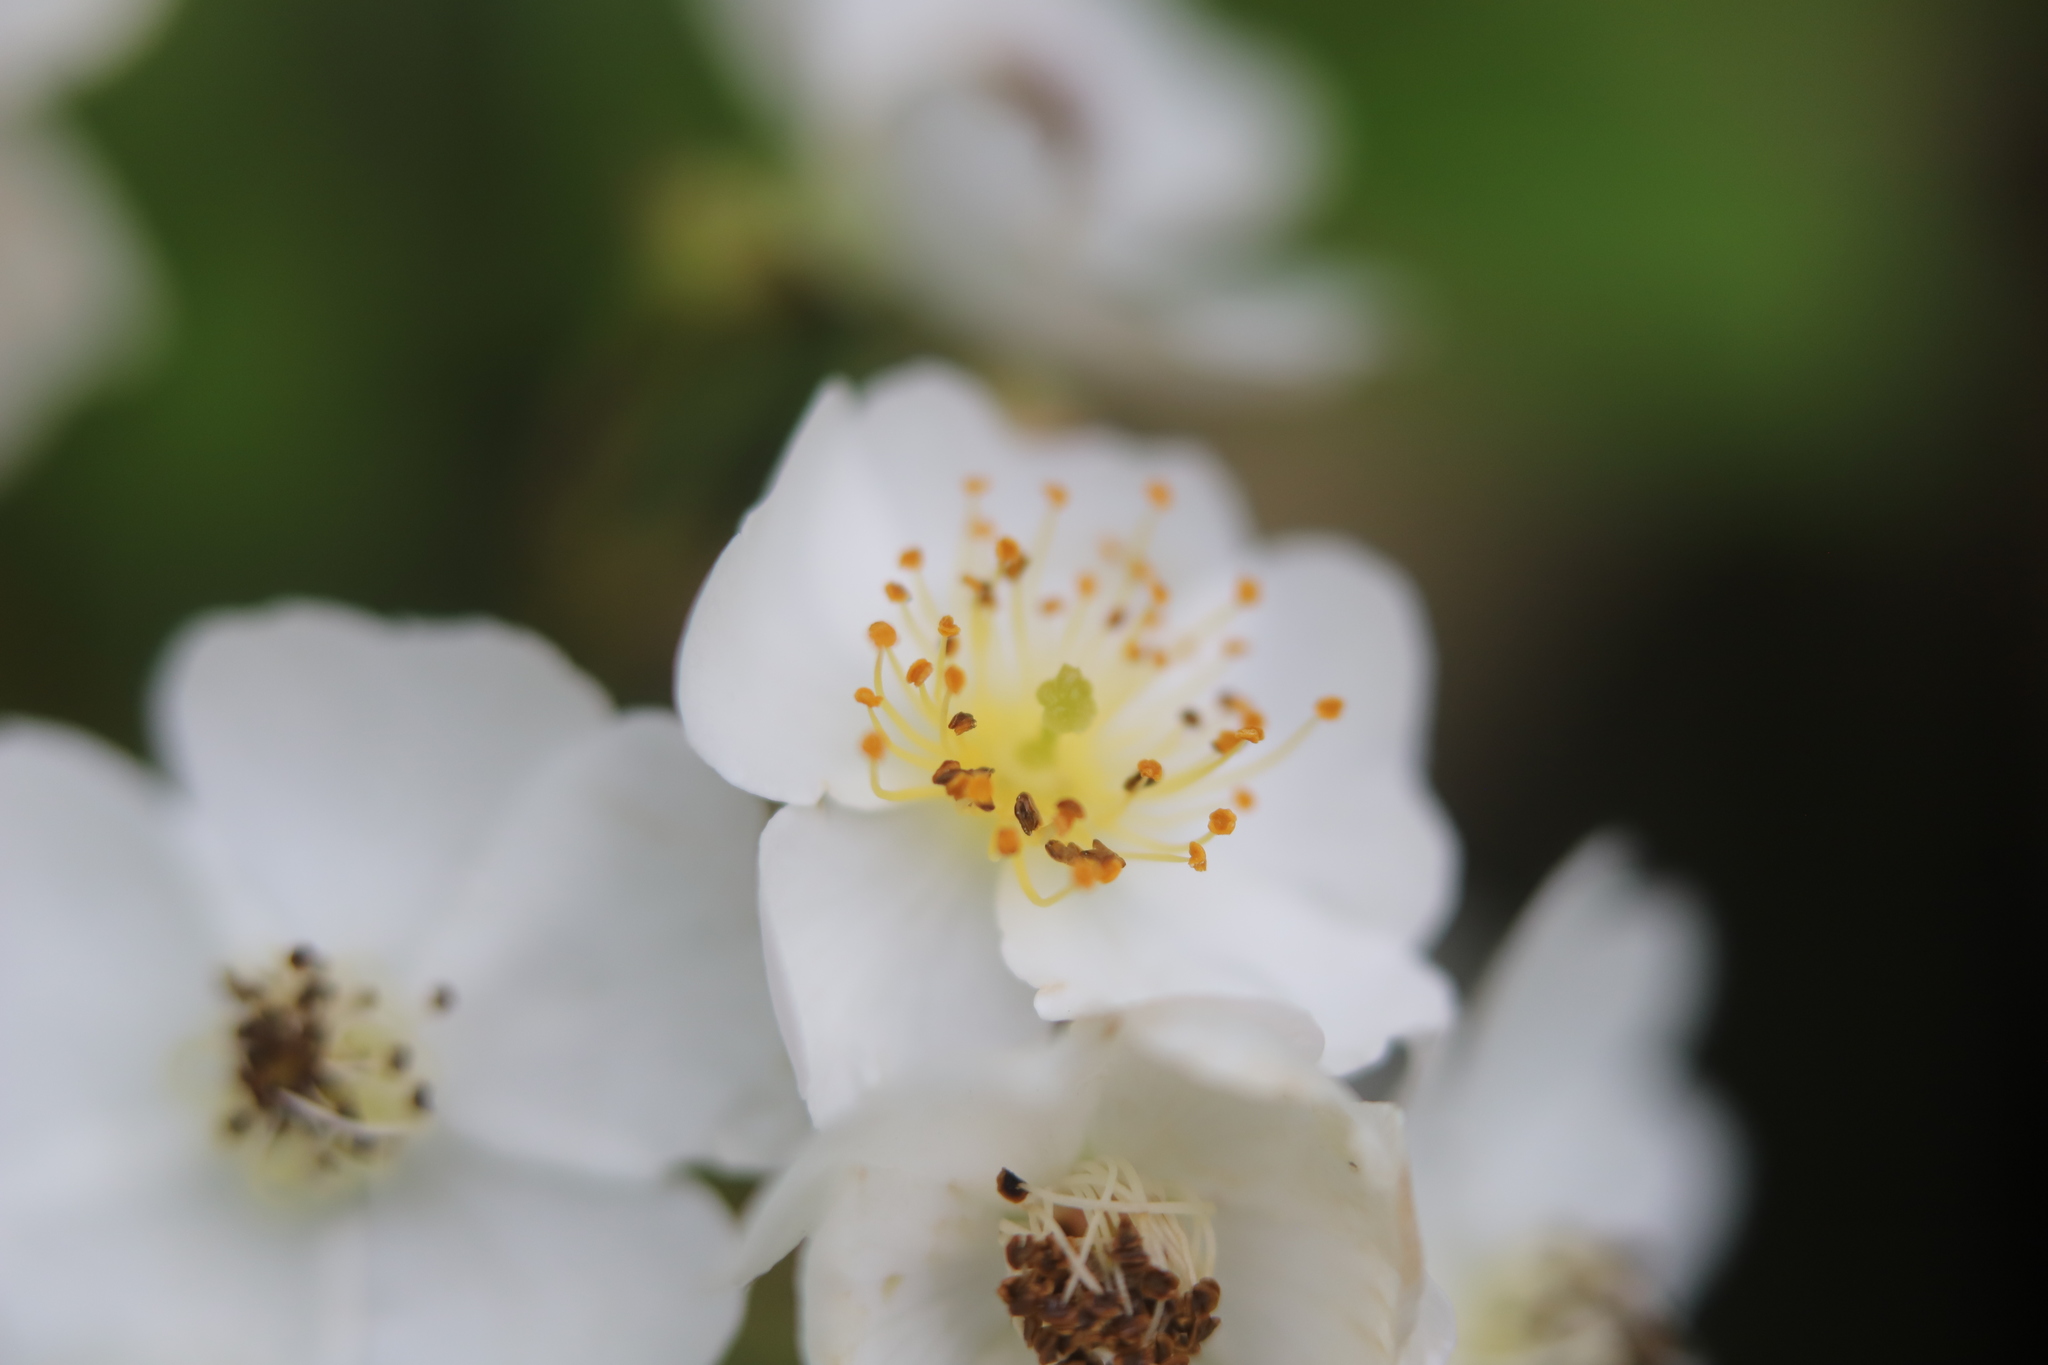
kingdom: Plantae
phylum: Tracheophyta
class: Magnoliopsida
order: Rosales
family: Rosaceae
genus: Rosa
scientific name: Rosa multiflora
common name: Multiflora rose
